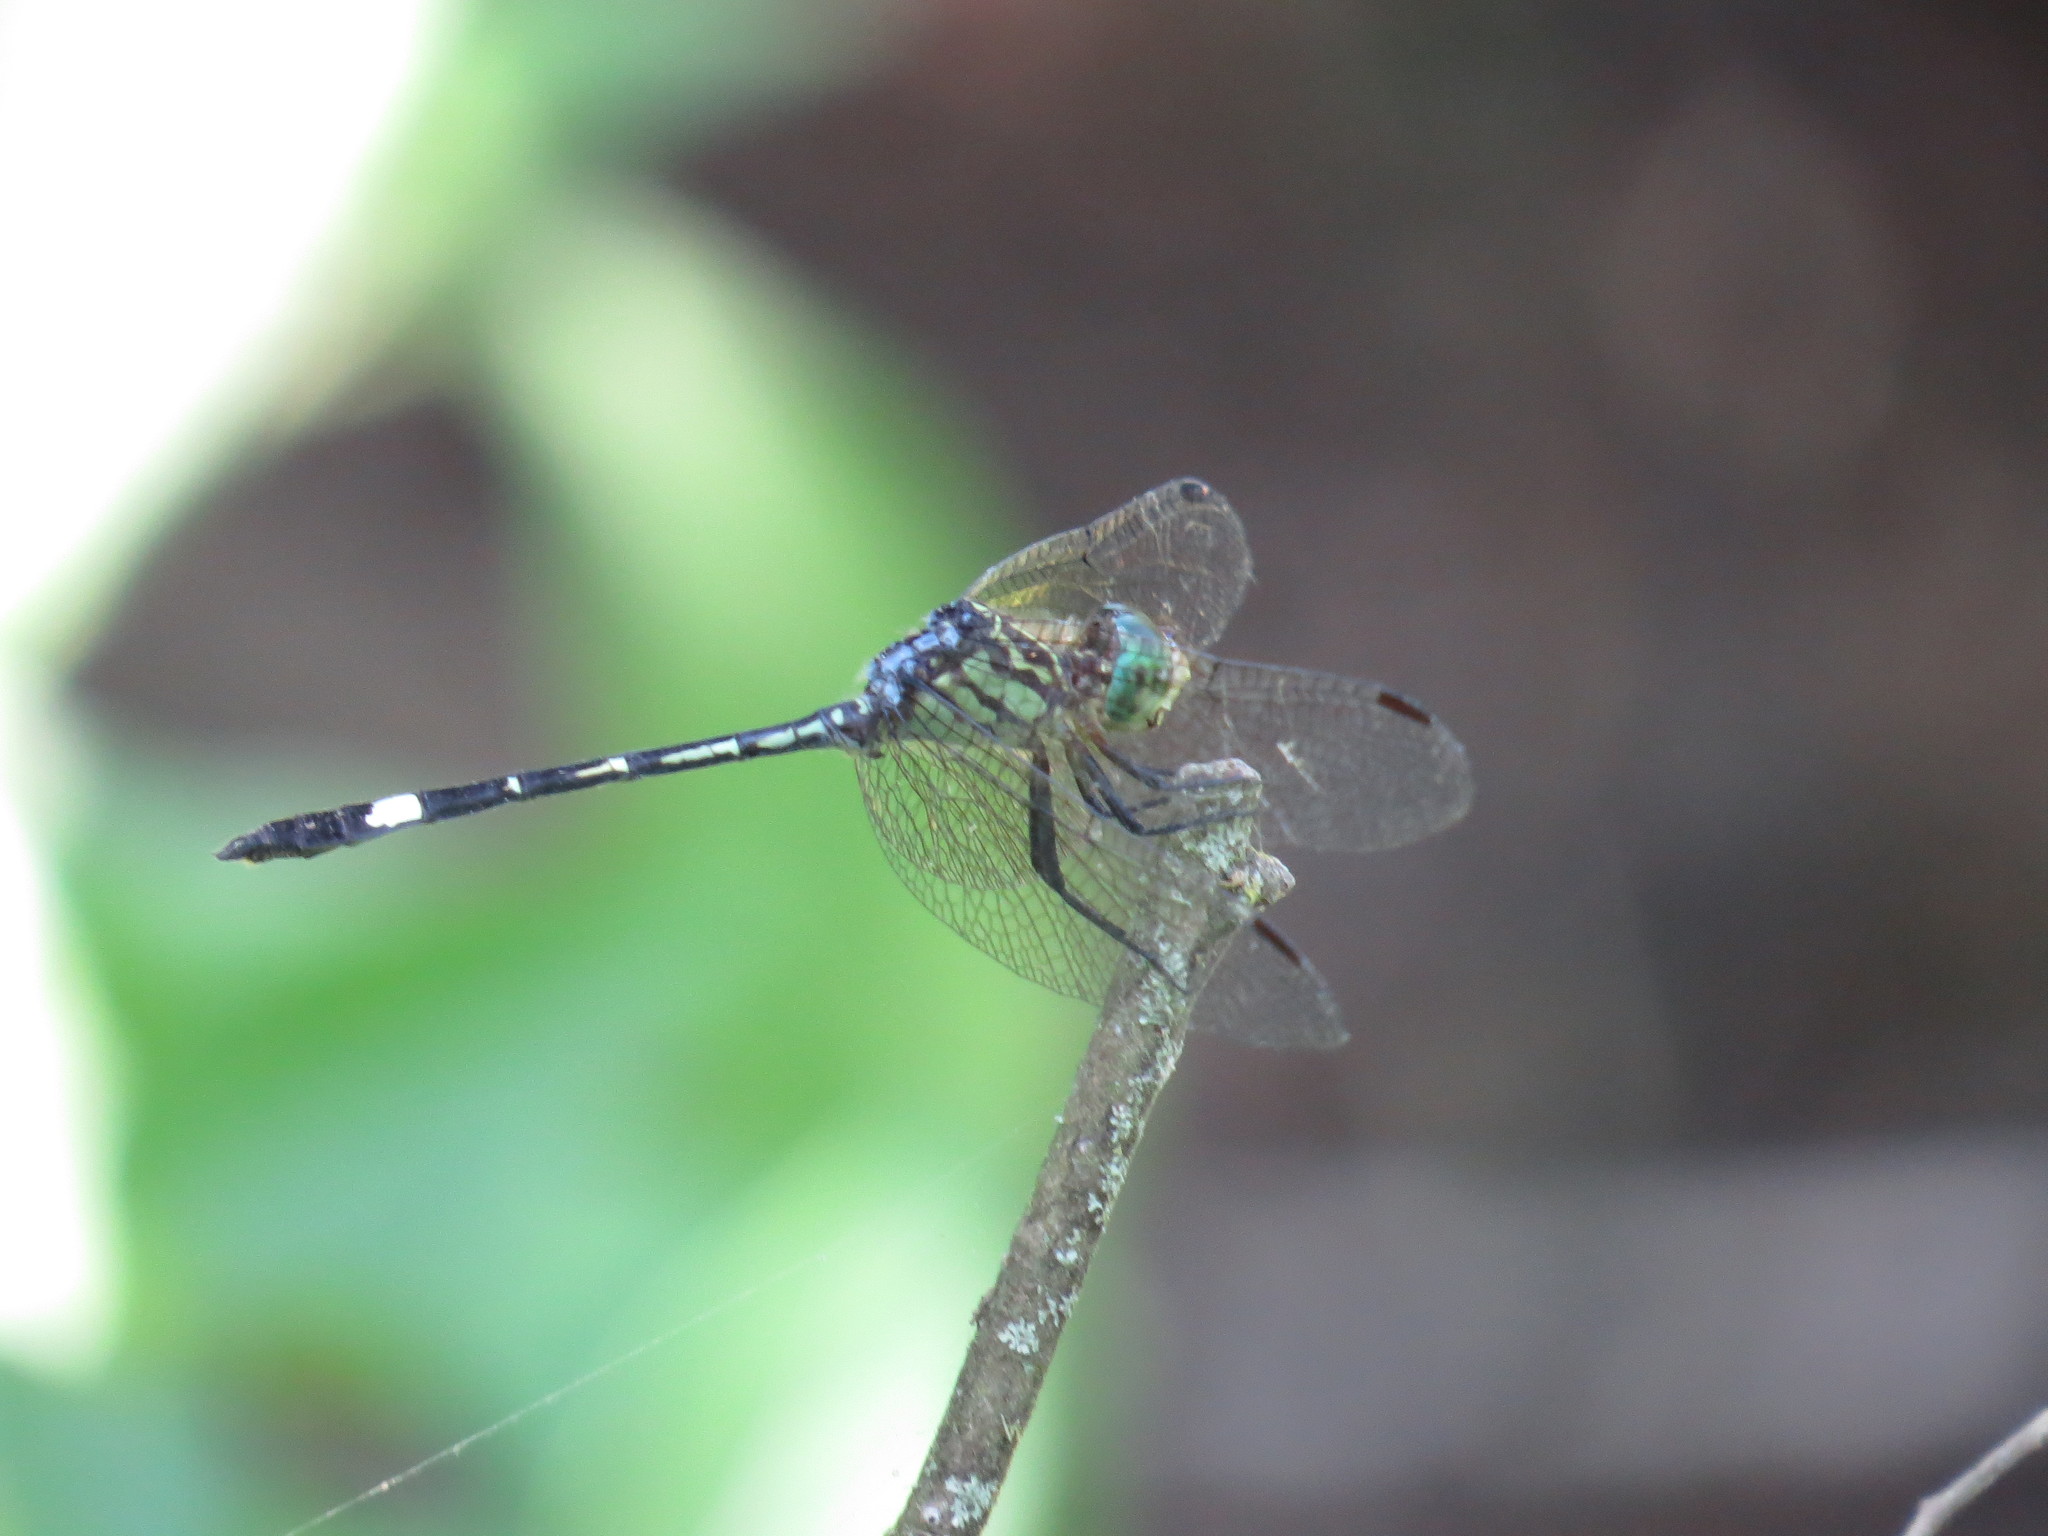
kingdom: Animalia
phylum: Arthropoda
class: Insecta
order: Odonata
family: Libellulidae
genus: Micrathyria
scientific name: Micrathyria didyma
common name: Three-striped dasher
